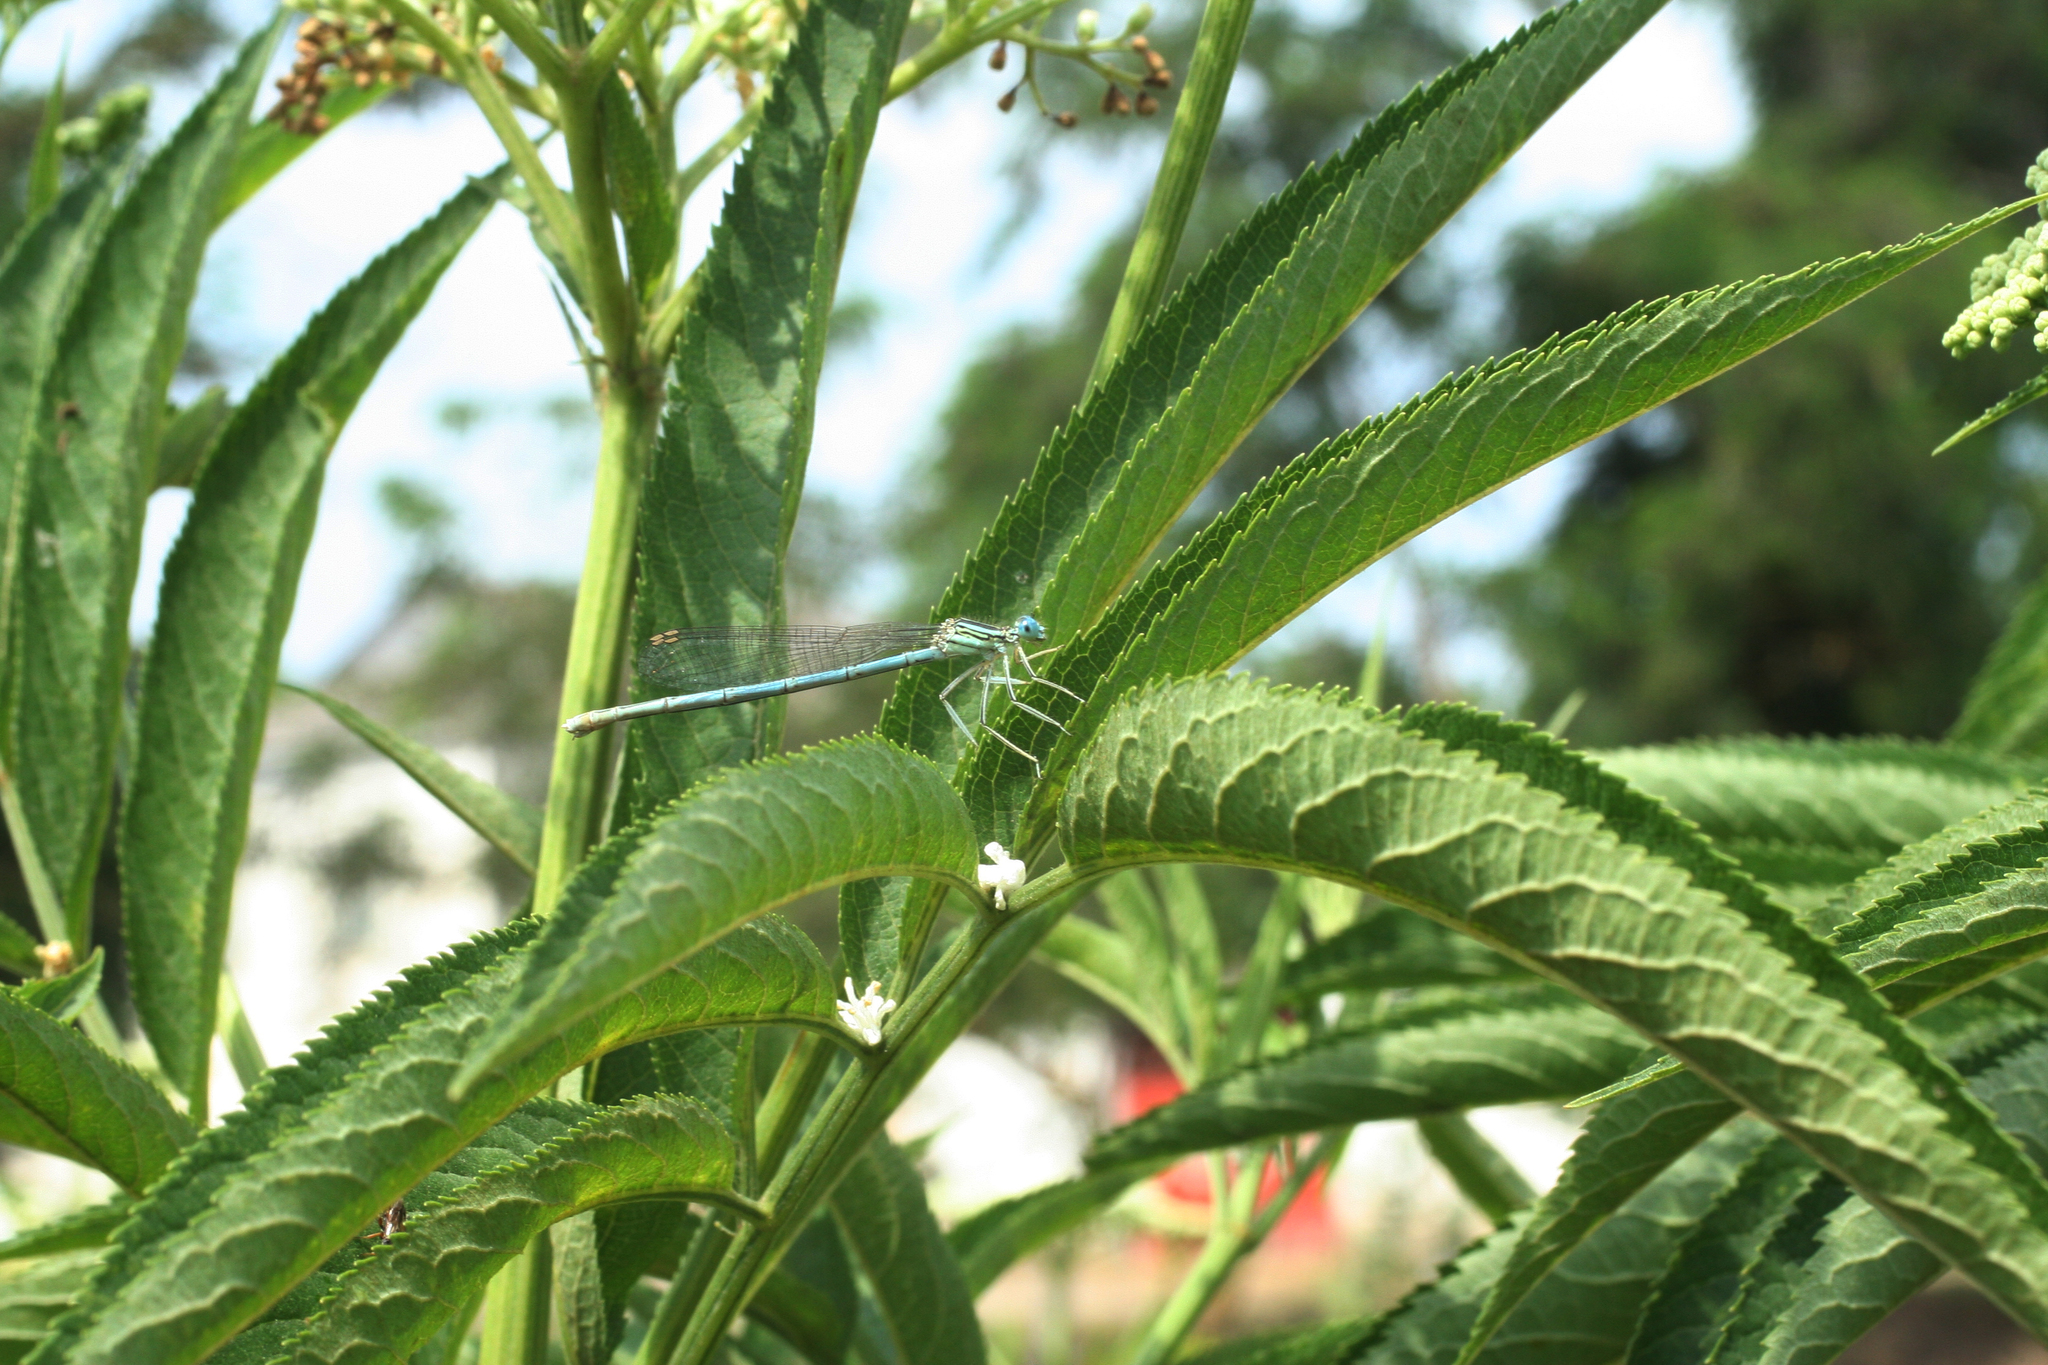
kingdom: Plantae
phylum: Tracheophyta
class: Magnoliopsida
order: Dipsacales
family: Viburnaceae
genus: Sambucus
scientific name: Sambucus ebulus
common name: Dwarf elder
